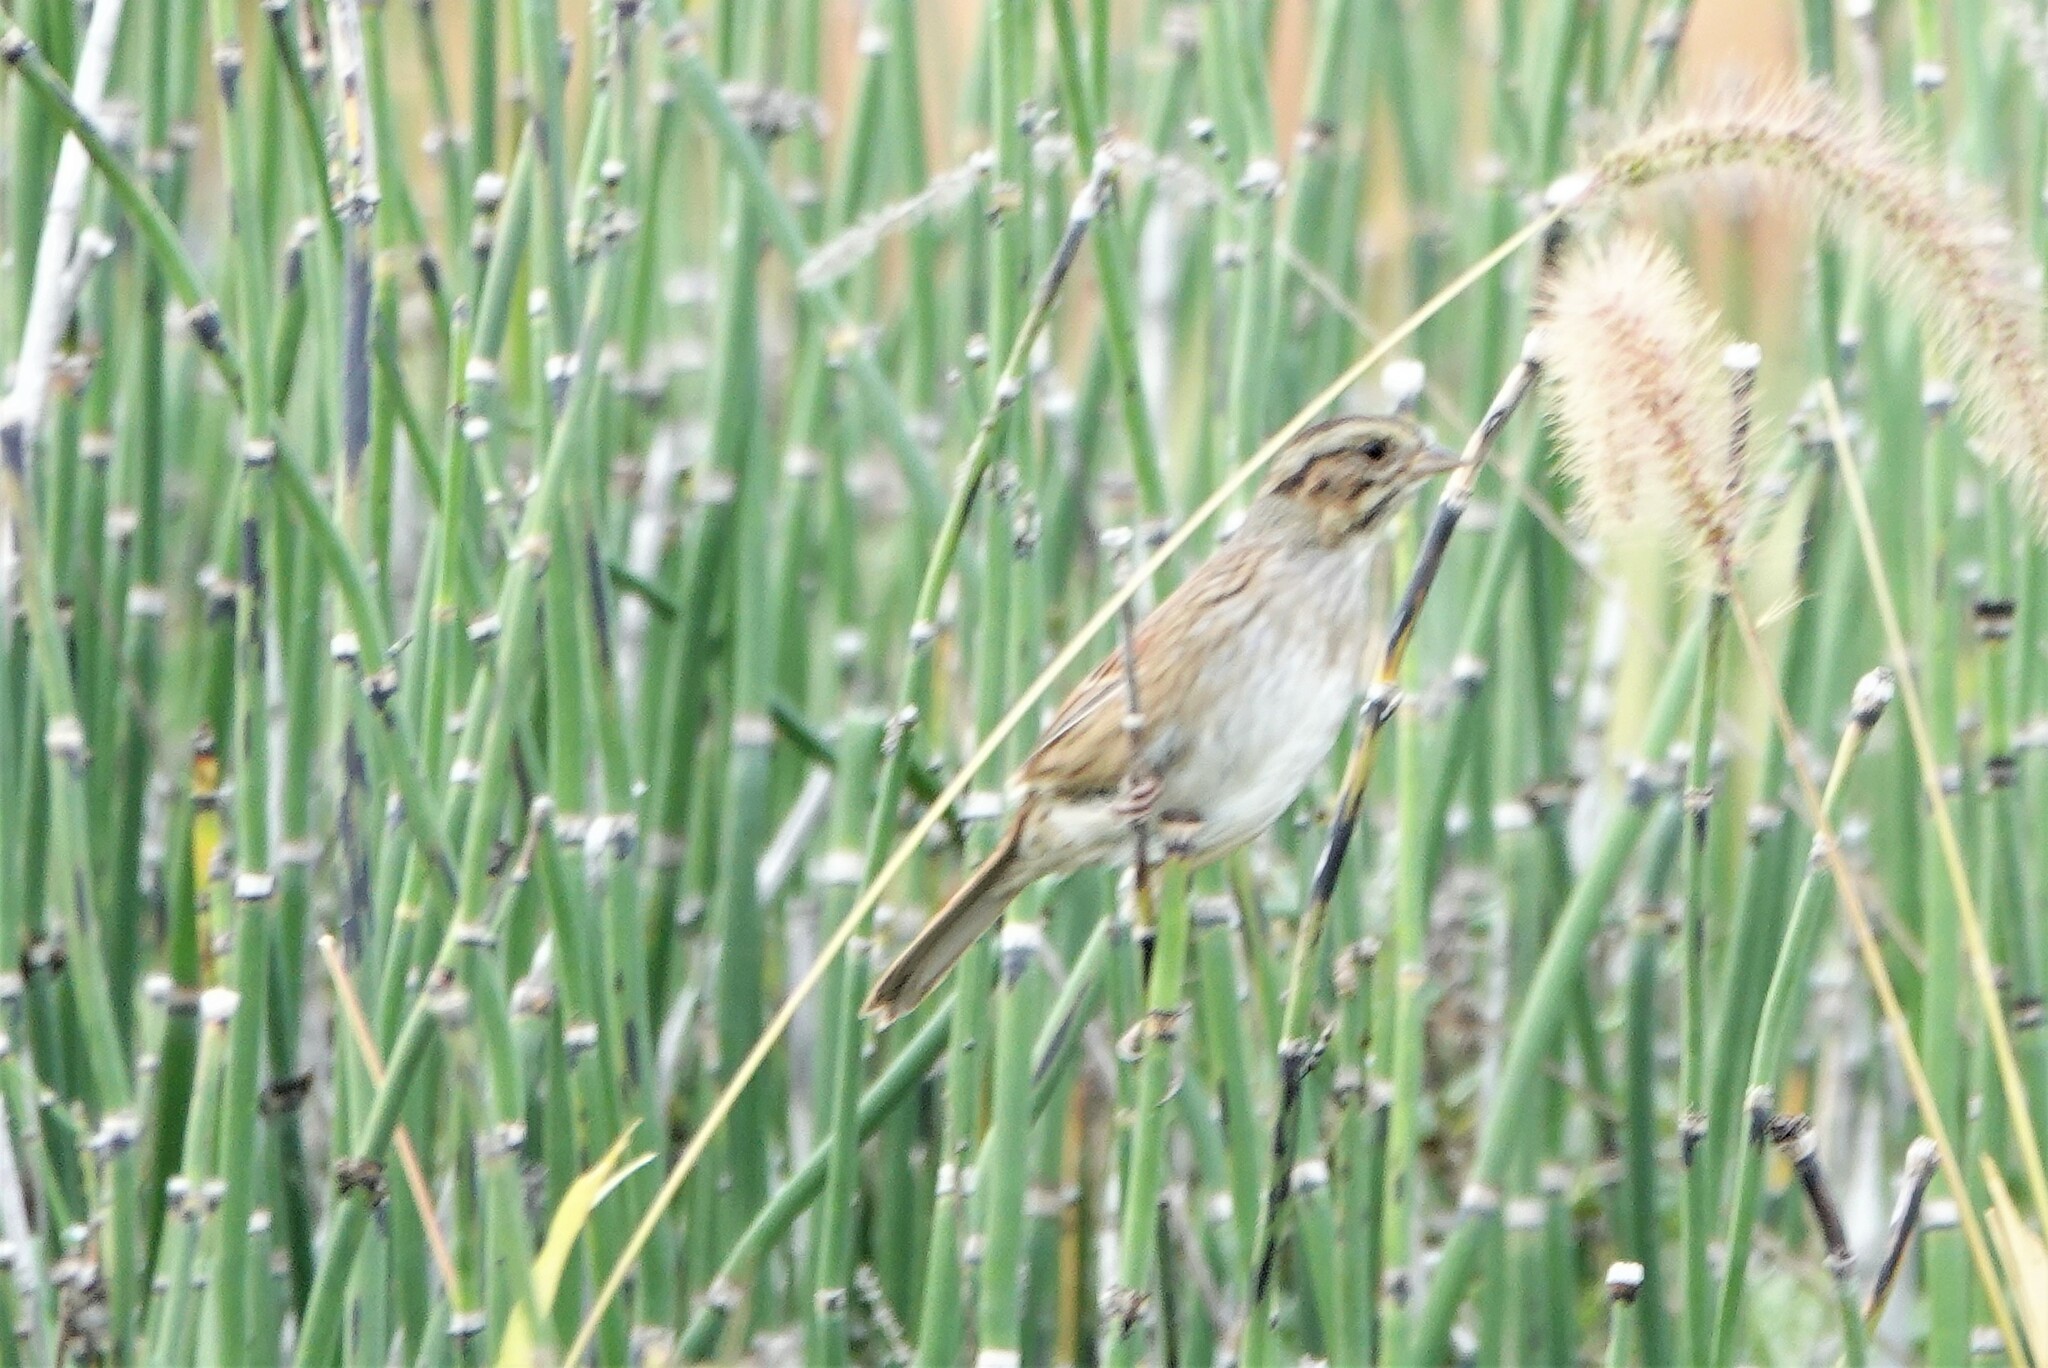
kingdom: Animalia
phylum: Chordata
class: Aves
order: Passeriformes
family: Passerellidae
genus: Melospiza
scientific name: Melospiza georgiana
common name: Swamp sparrow
